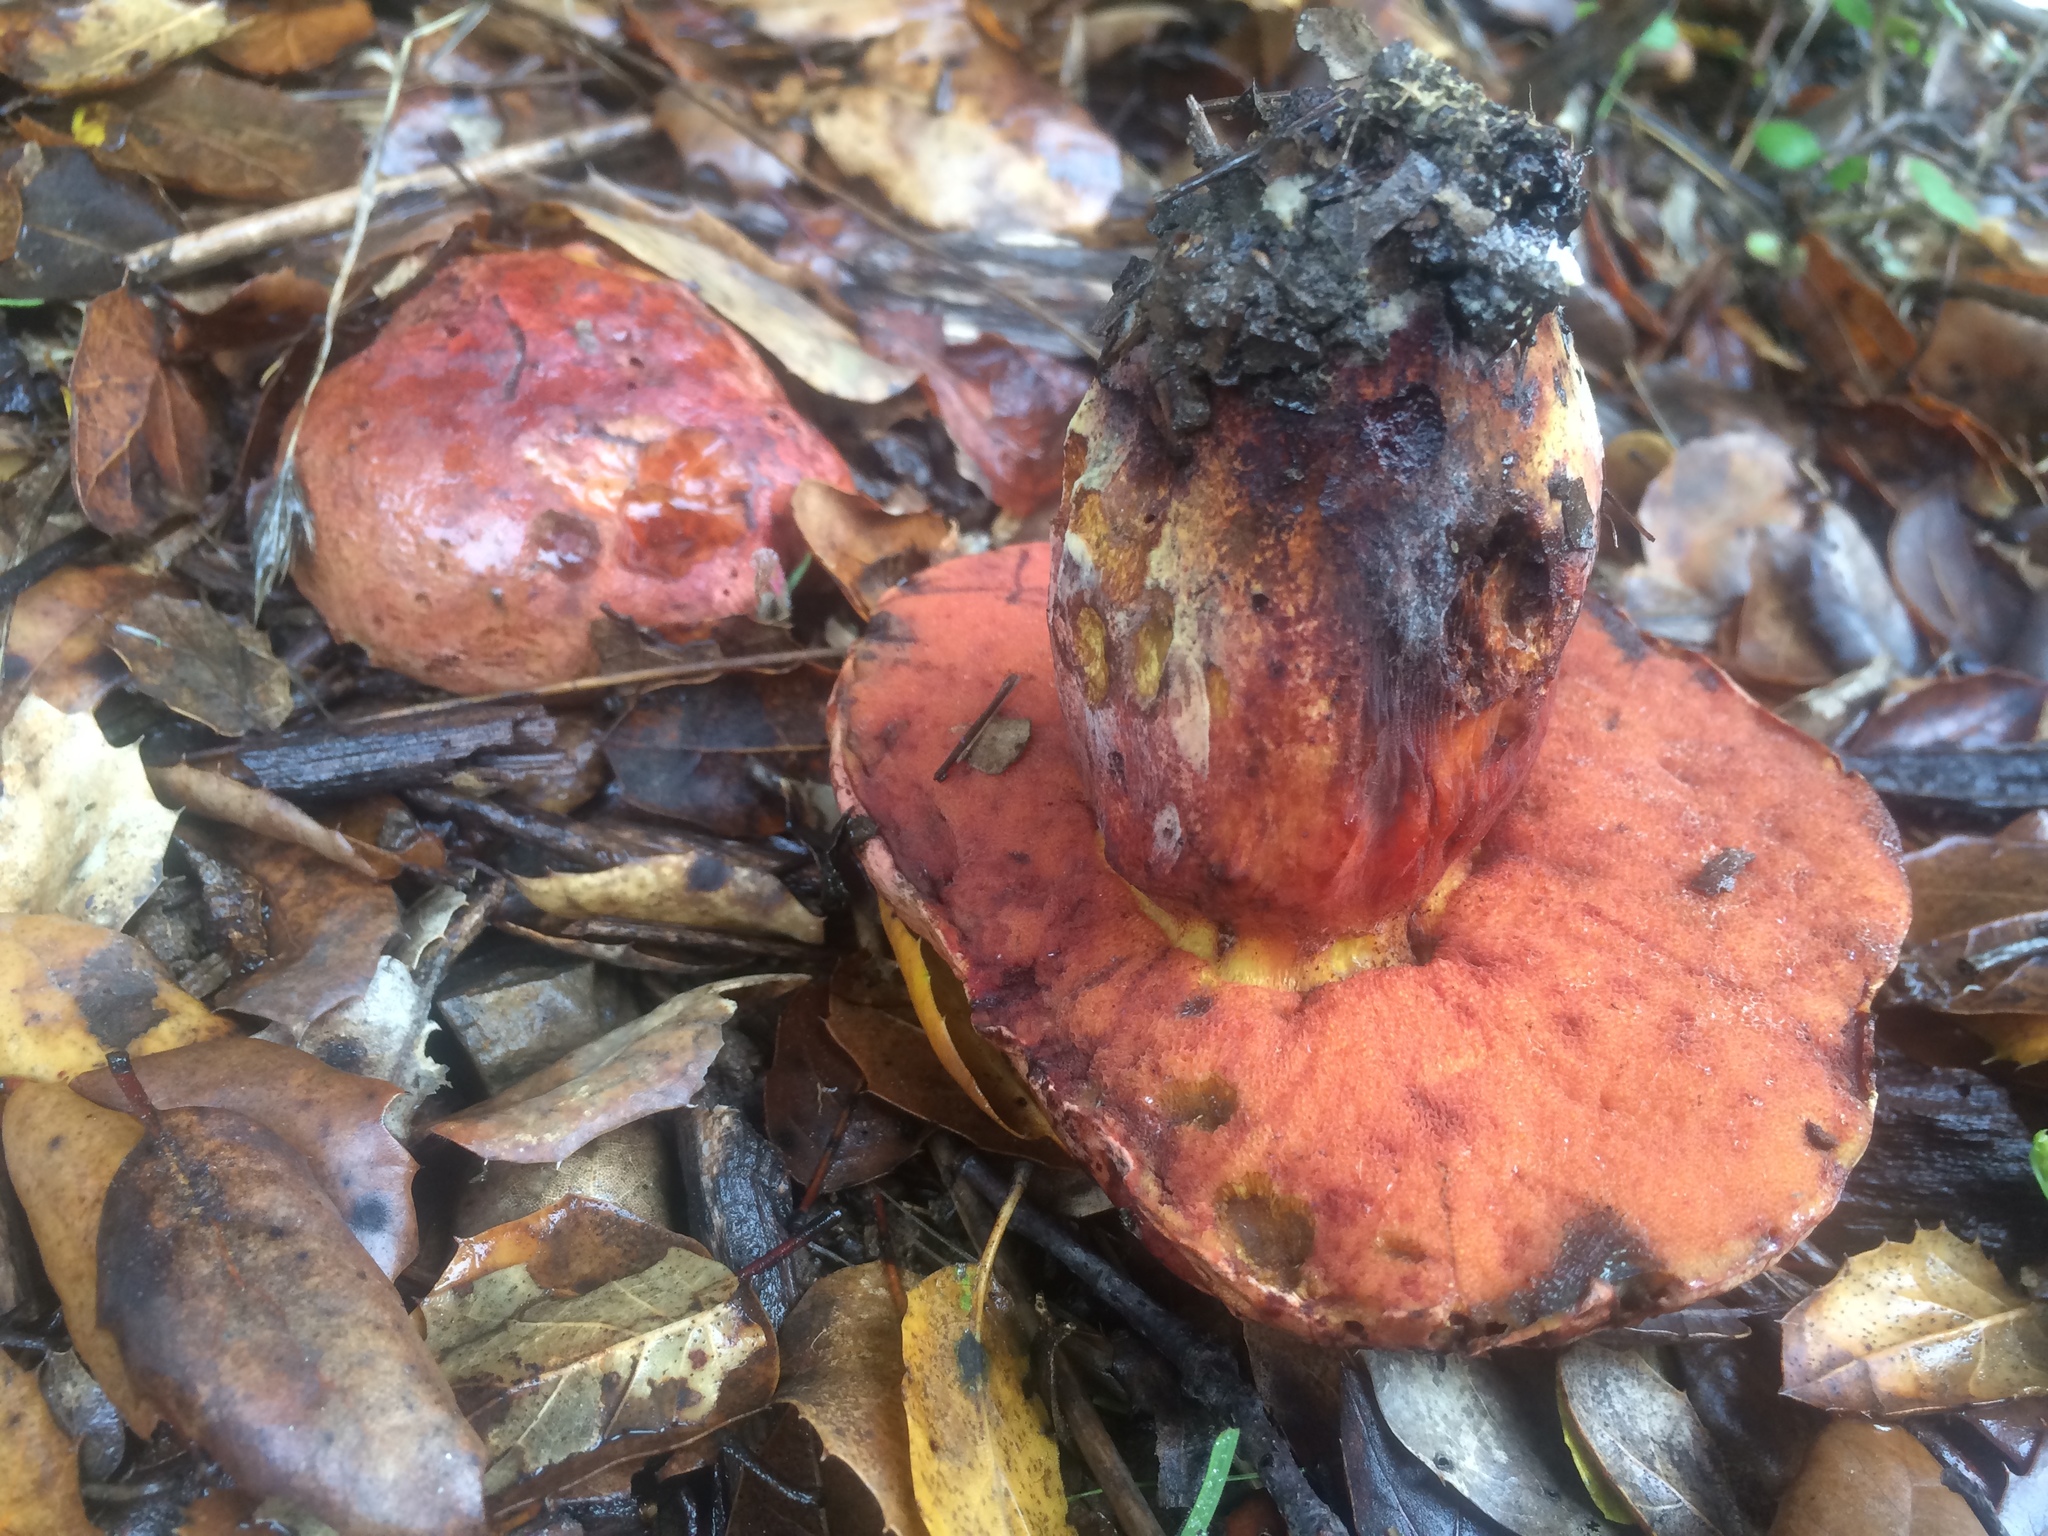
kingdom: Fungi
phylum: Basidiomycota
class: Agaricomycetes
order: Boletales
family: Boletaceae
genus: Suillellus
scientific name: Suillellus amygdalinus
